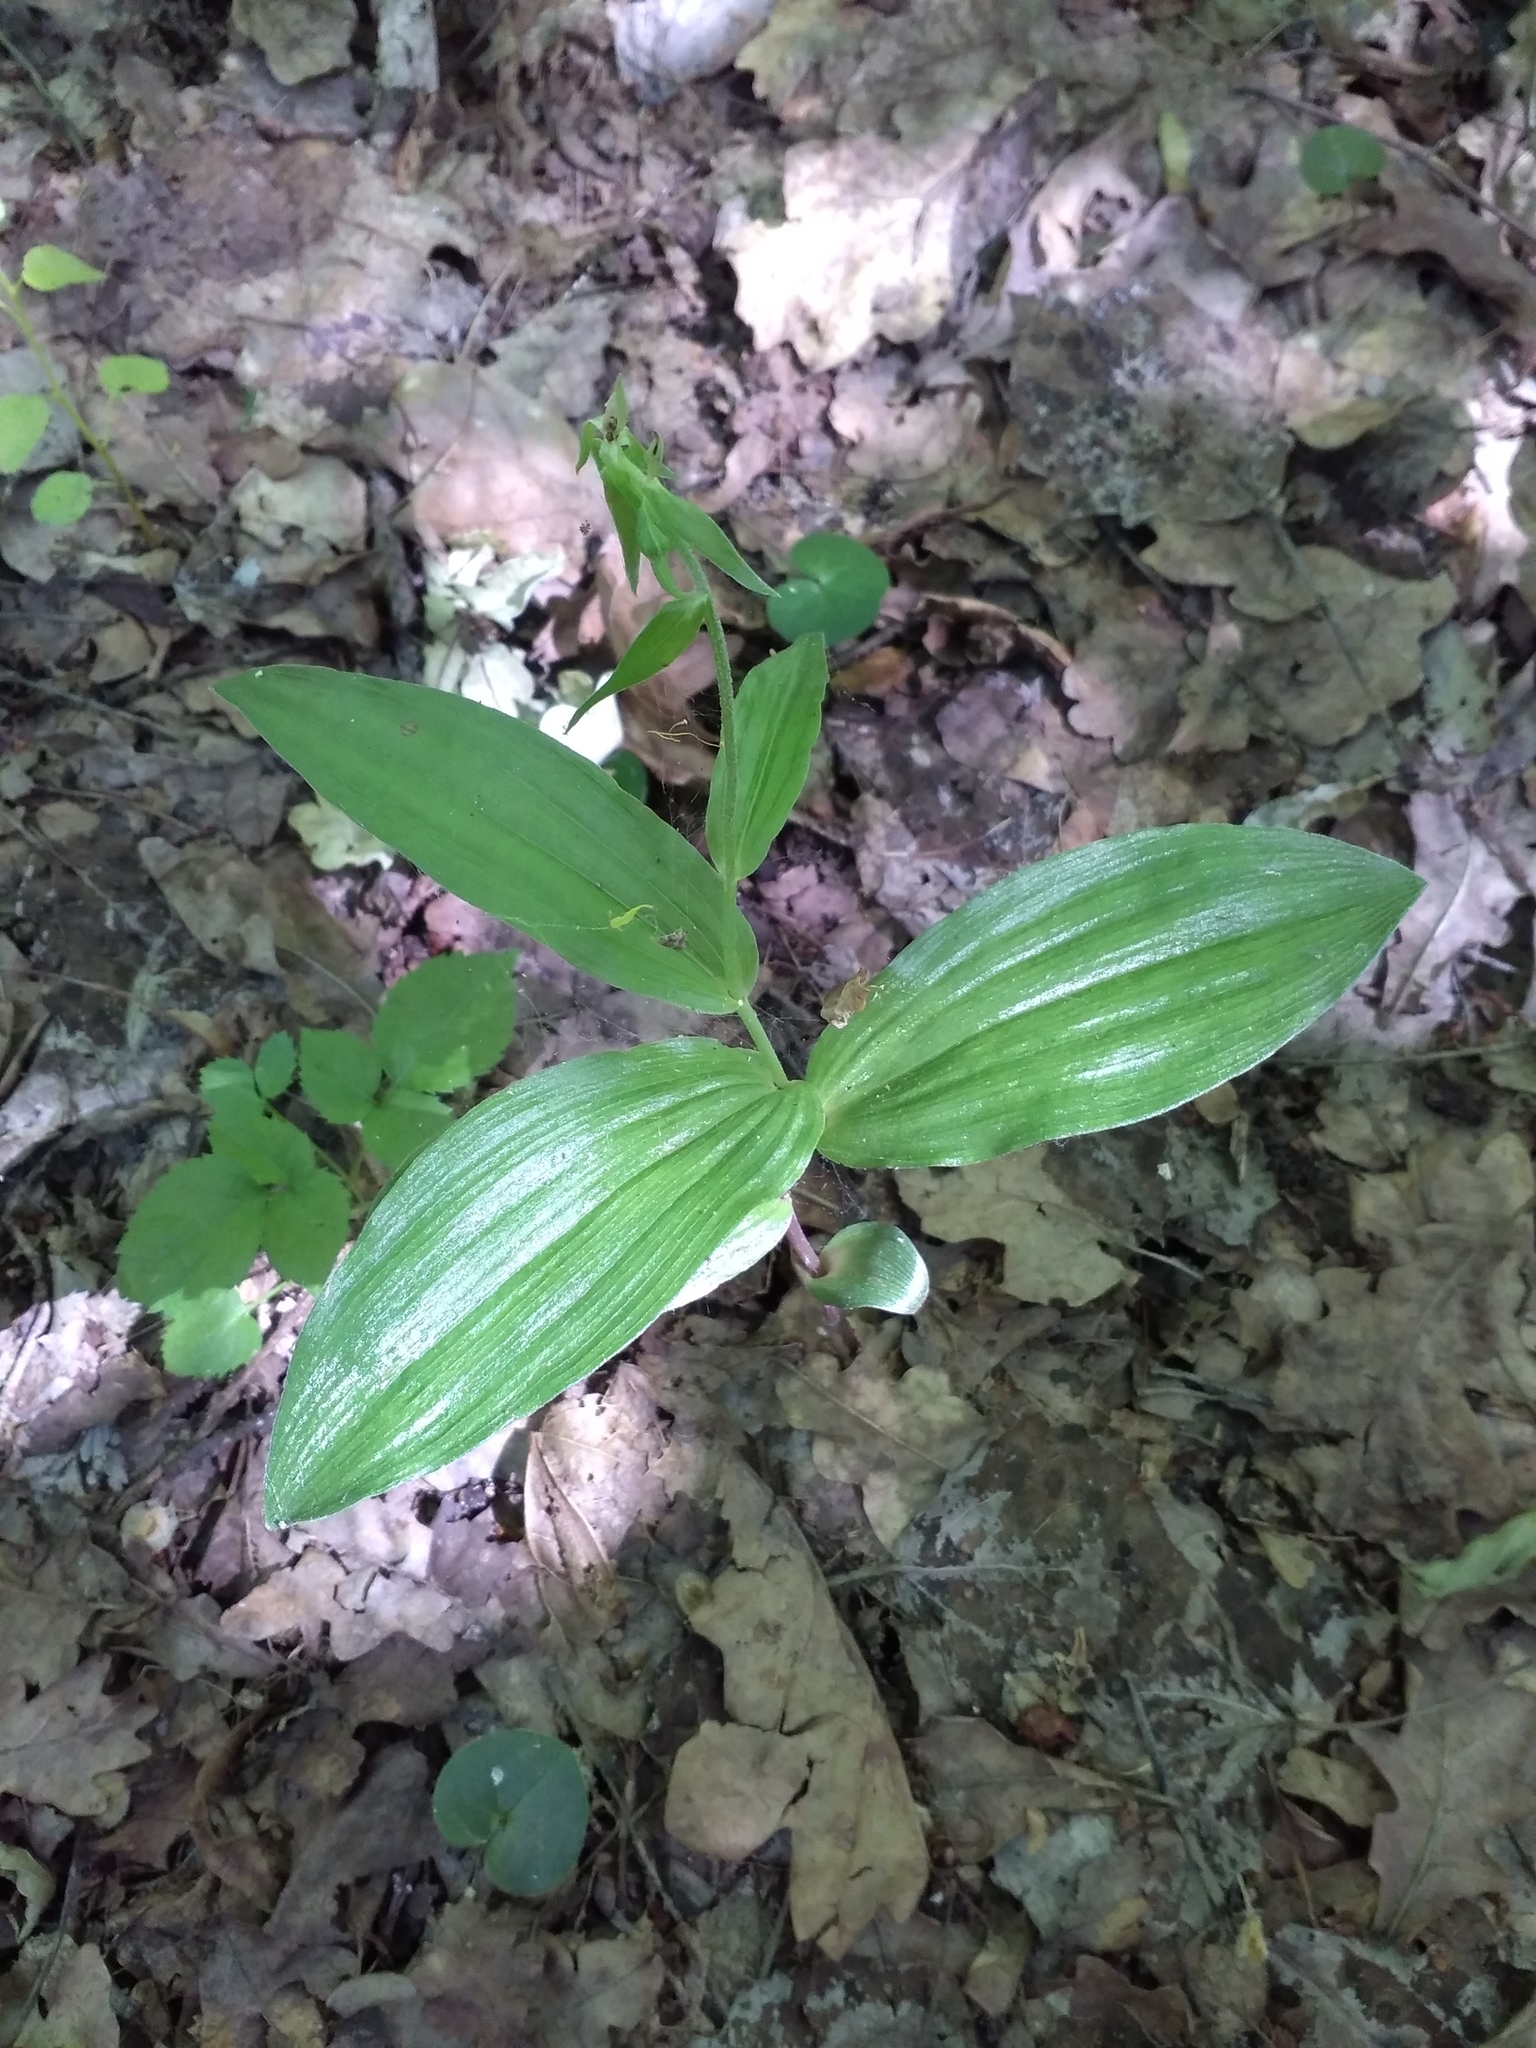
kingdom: Plantae
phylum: Tracheophyta
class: Liliopsida
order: Asparagales
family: Orchidaceae
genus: Epipactis
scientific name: Epipactis helleborine
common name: Broad-leaved helleborine
